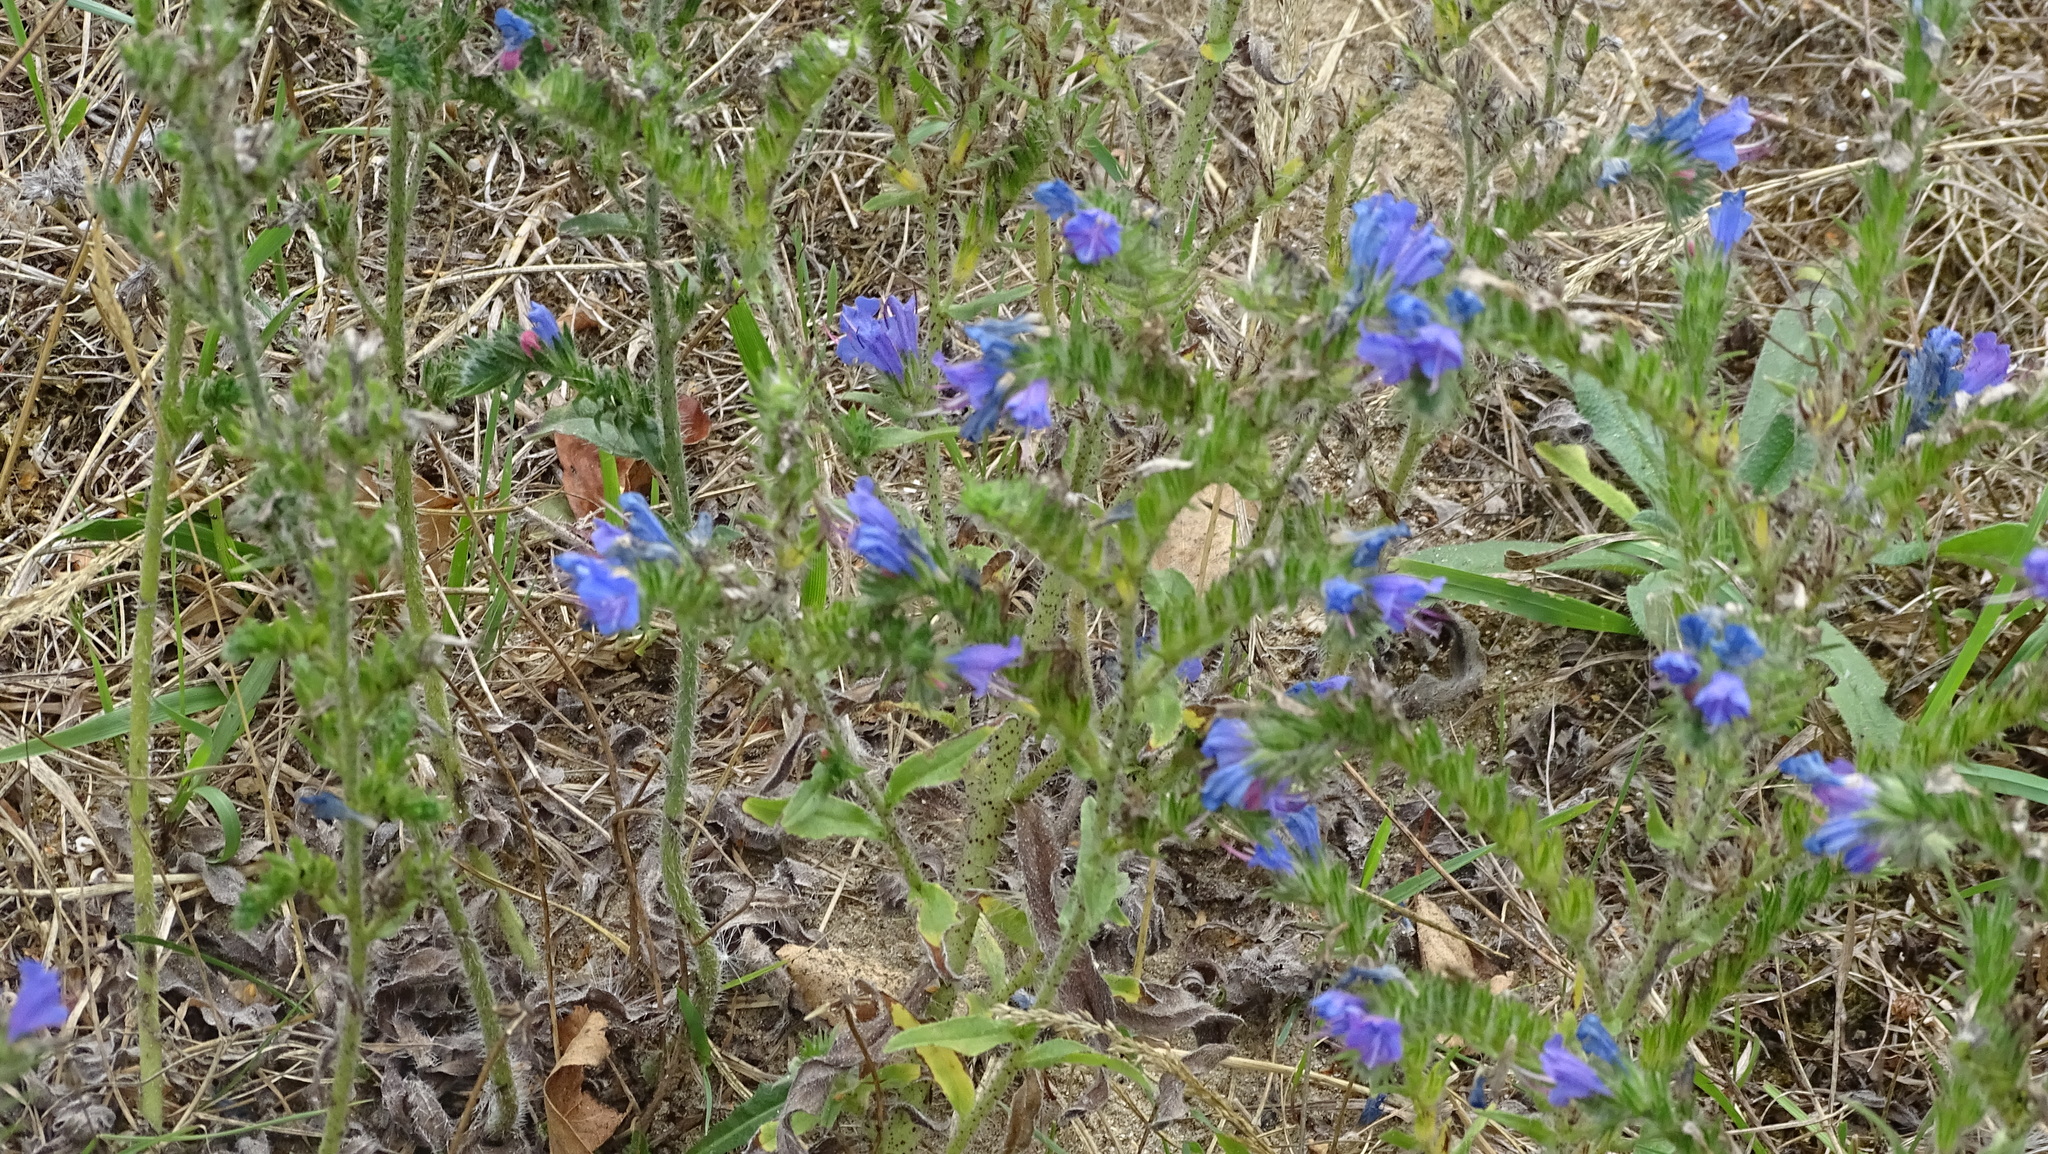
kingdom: Plantae
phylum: Tracheophyta
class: Magnoliopsida
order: Boraginales
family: Boraginaceae
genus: Echium
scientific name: Echium vulgare
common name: Common viper's bugloss
